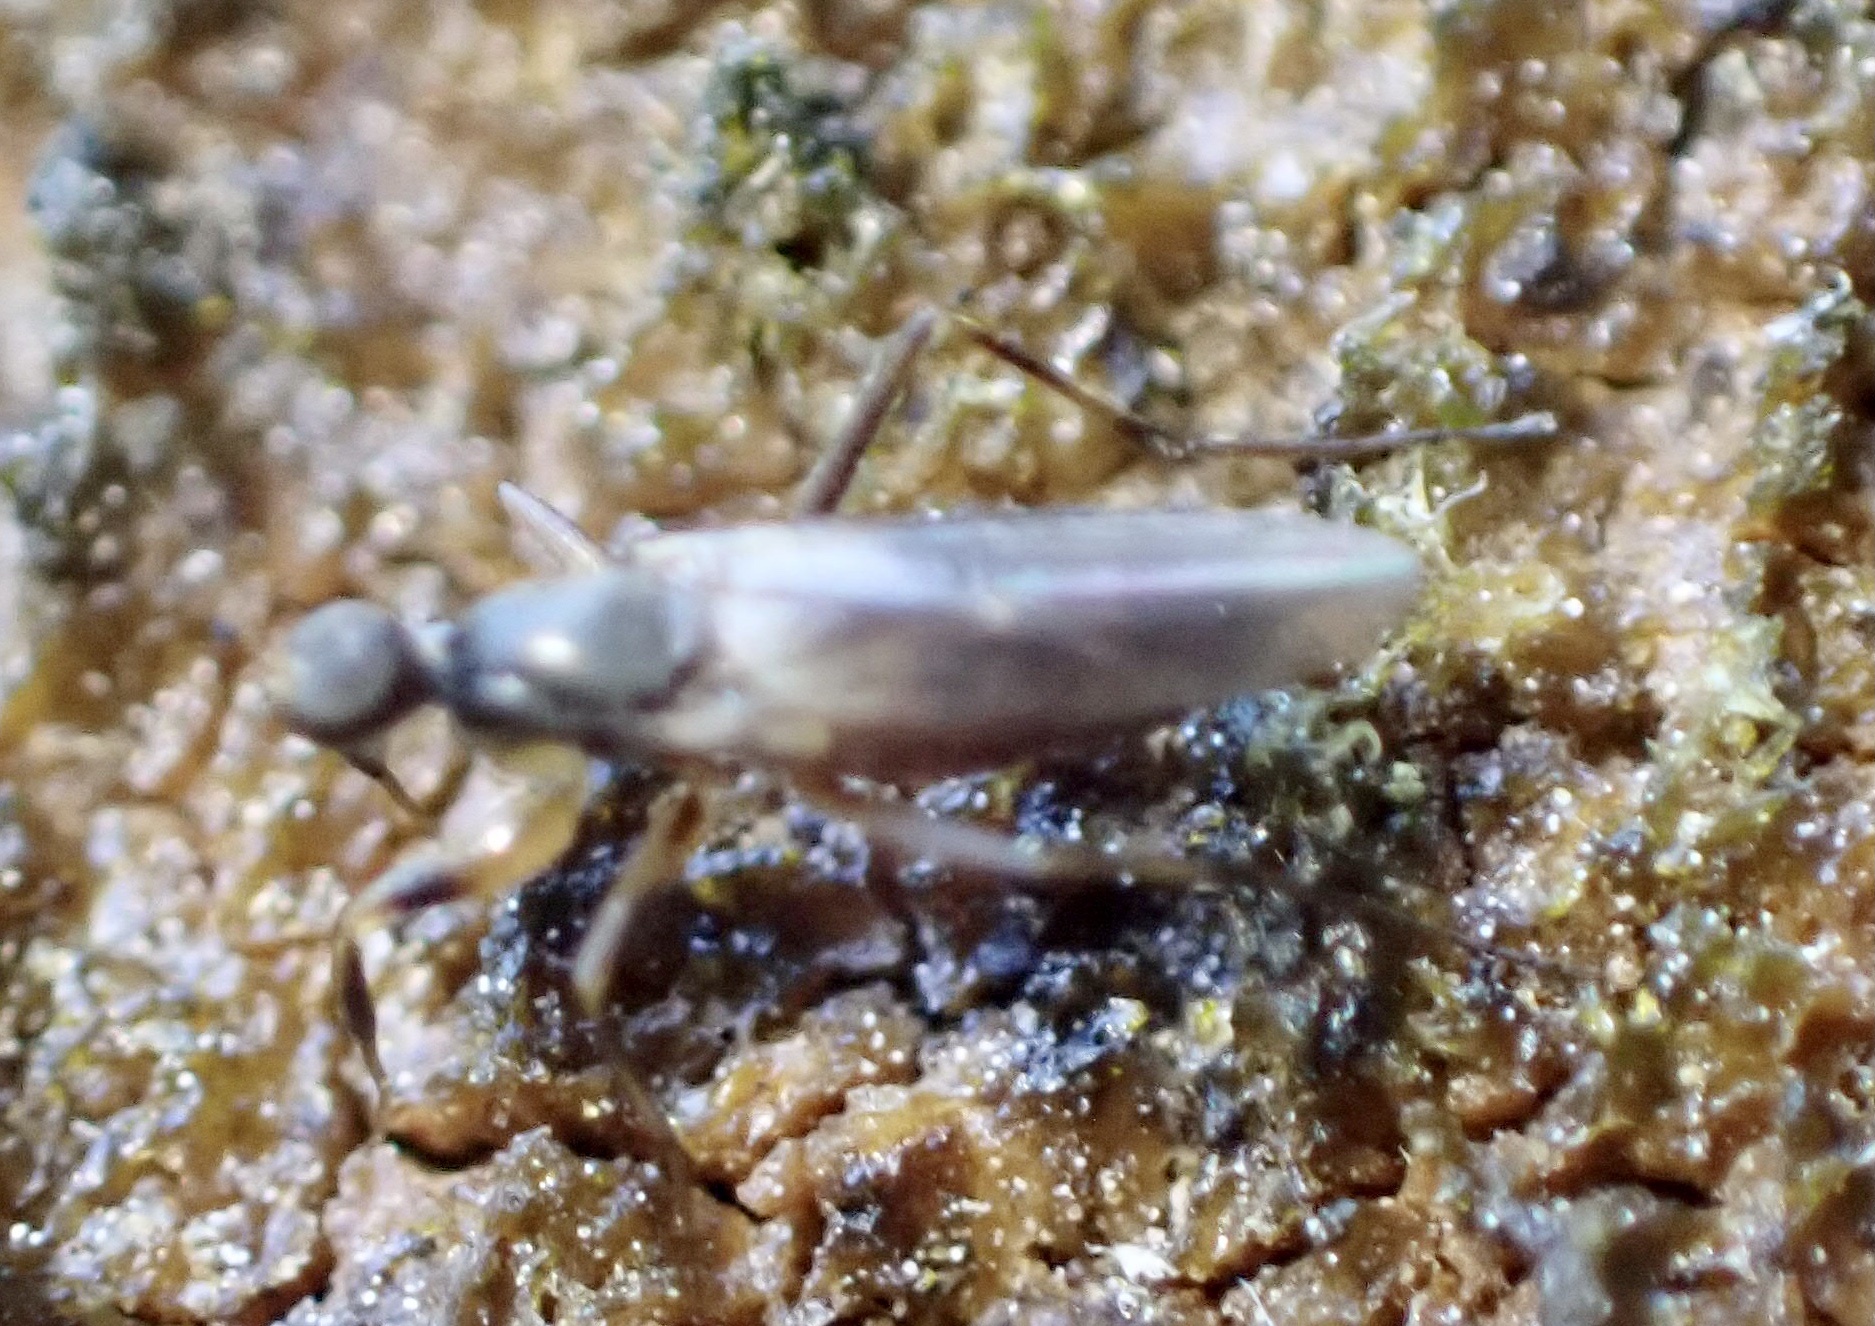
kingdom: Animalia
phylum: Arthropoda
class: Insecta
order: Diptera
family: Hybotidae
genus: Tachypeza
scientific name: Tachypeza nubila
